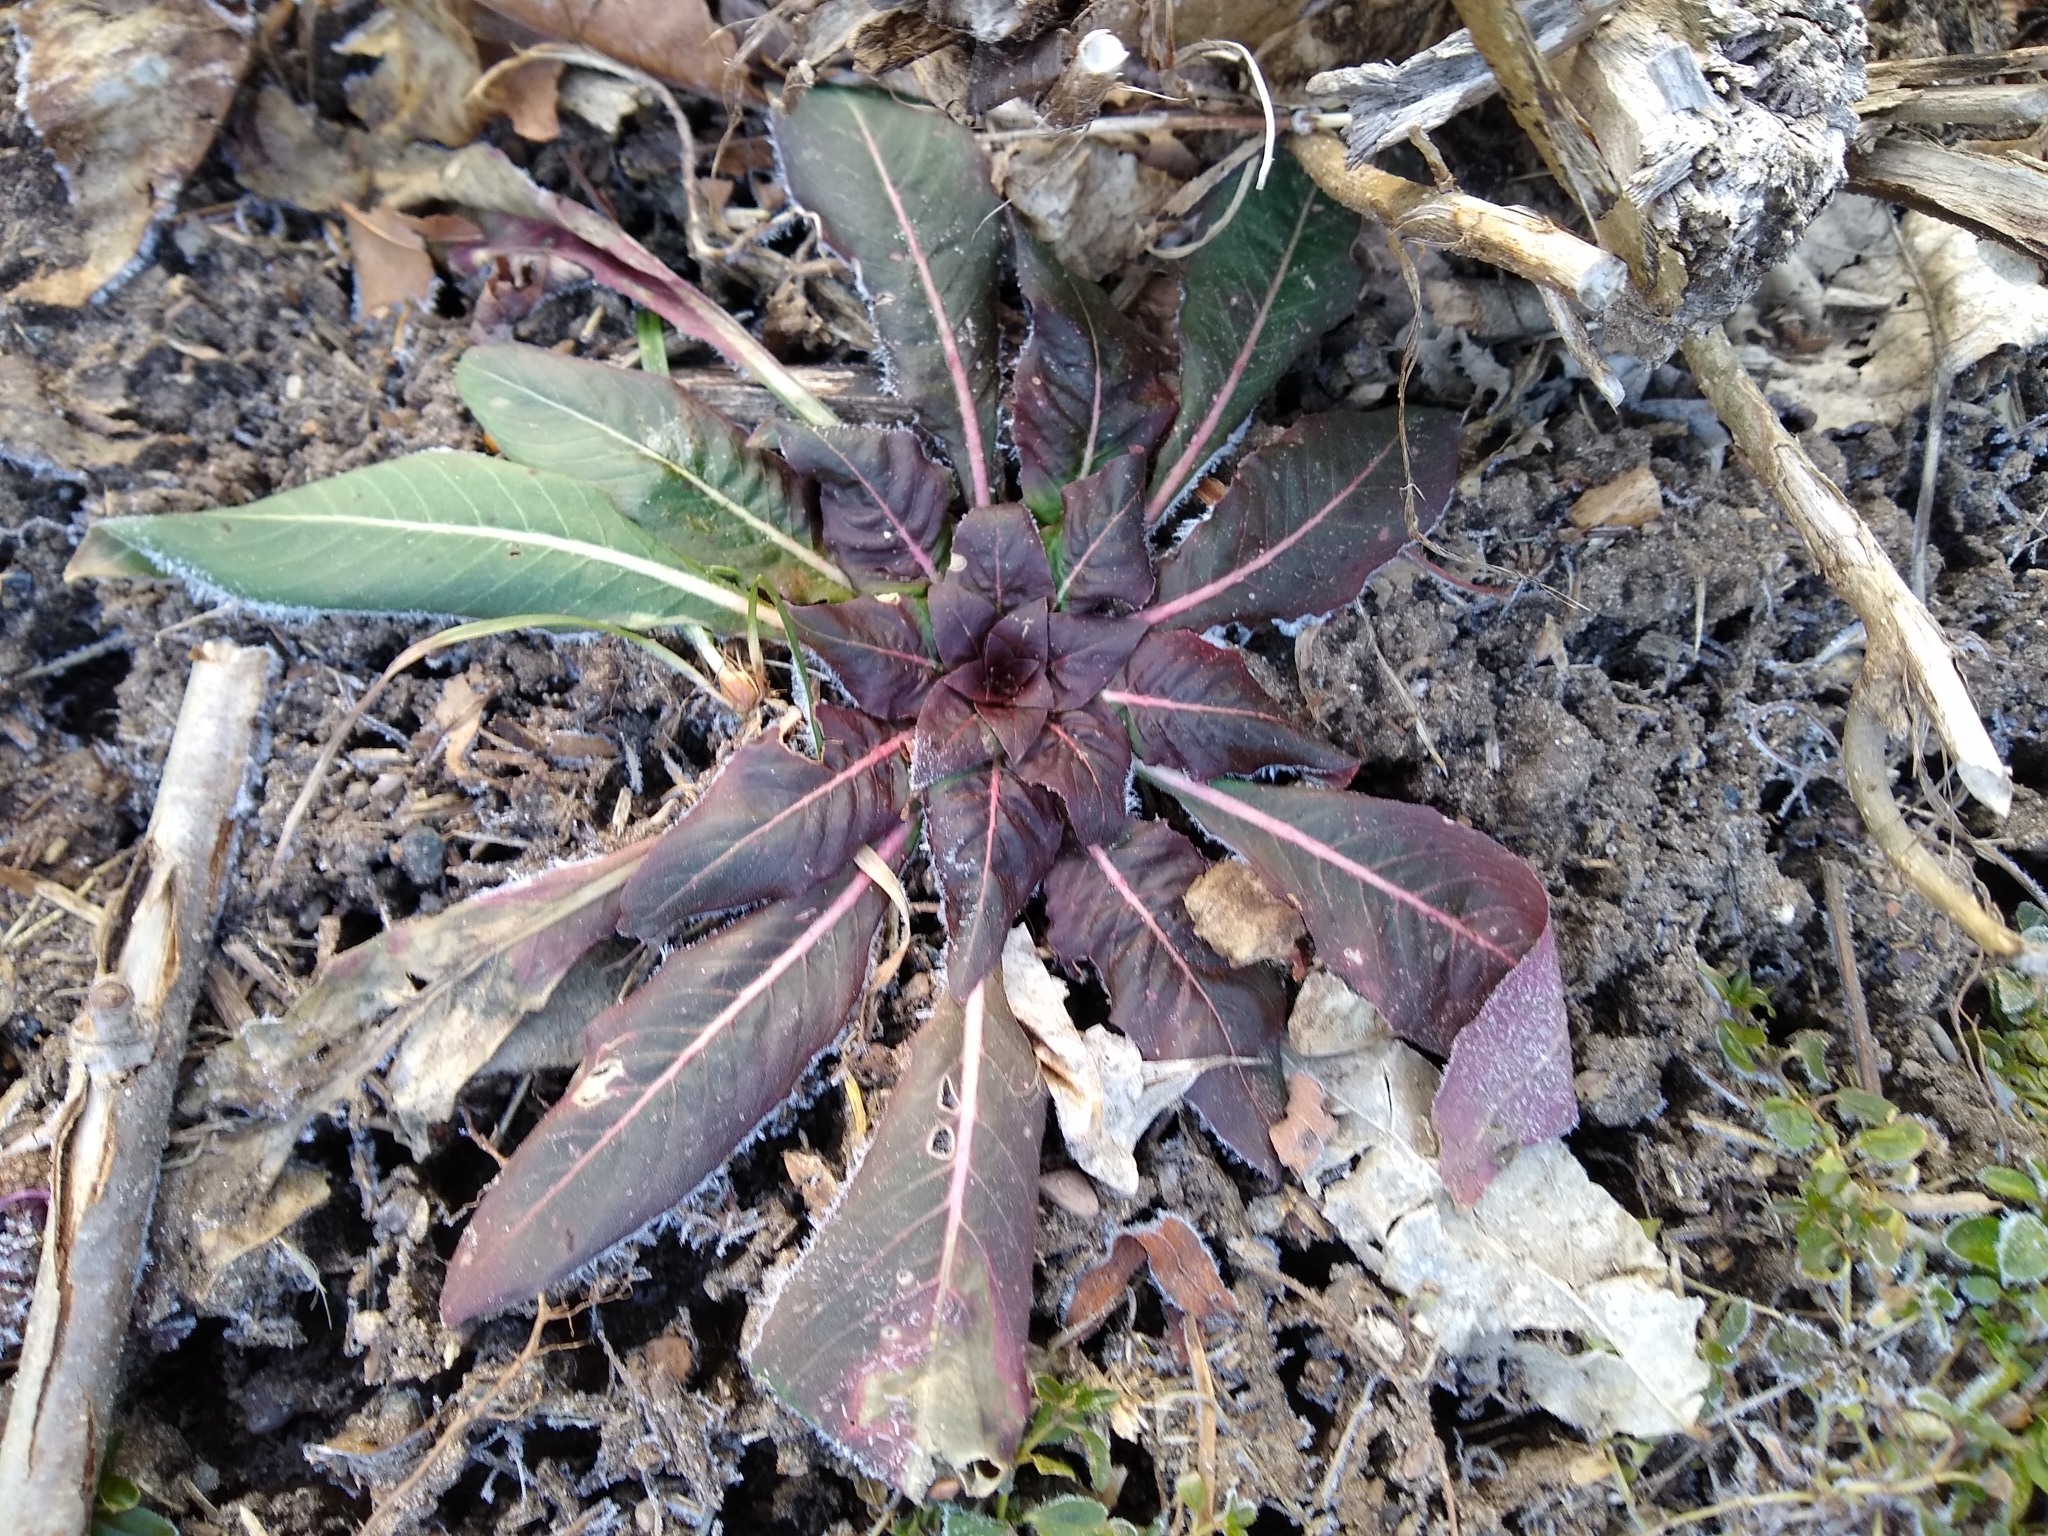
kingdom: Plantae
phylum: Tracheophyta
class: Magnoliopsida
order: Myrtales
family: Onagraceae
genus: Oenothera
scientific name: Oenothera
